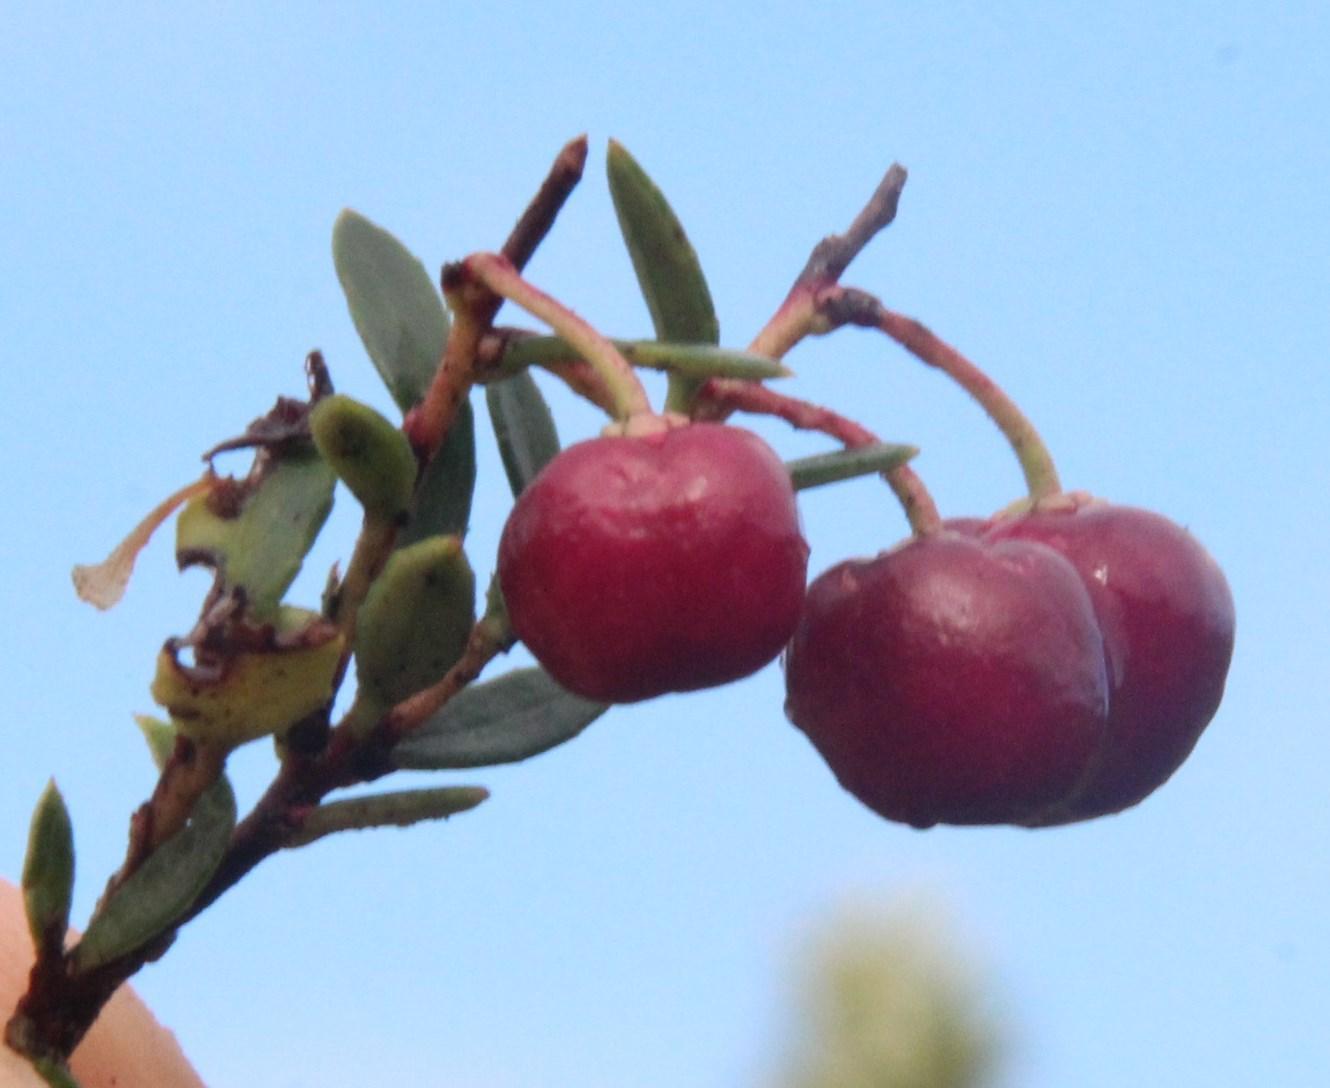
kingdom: Plantae
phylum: Tracheophyta
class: Magnoliopsida
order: Ericales
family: Ericaceae
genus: Gaultheria
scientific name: Gaultheria mucronata
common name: Prickly heath
